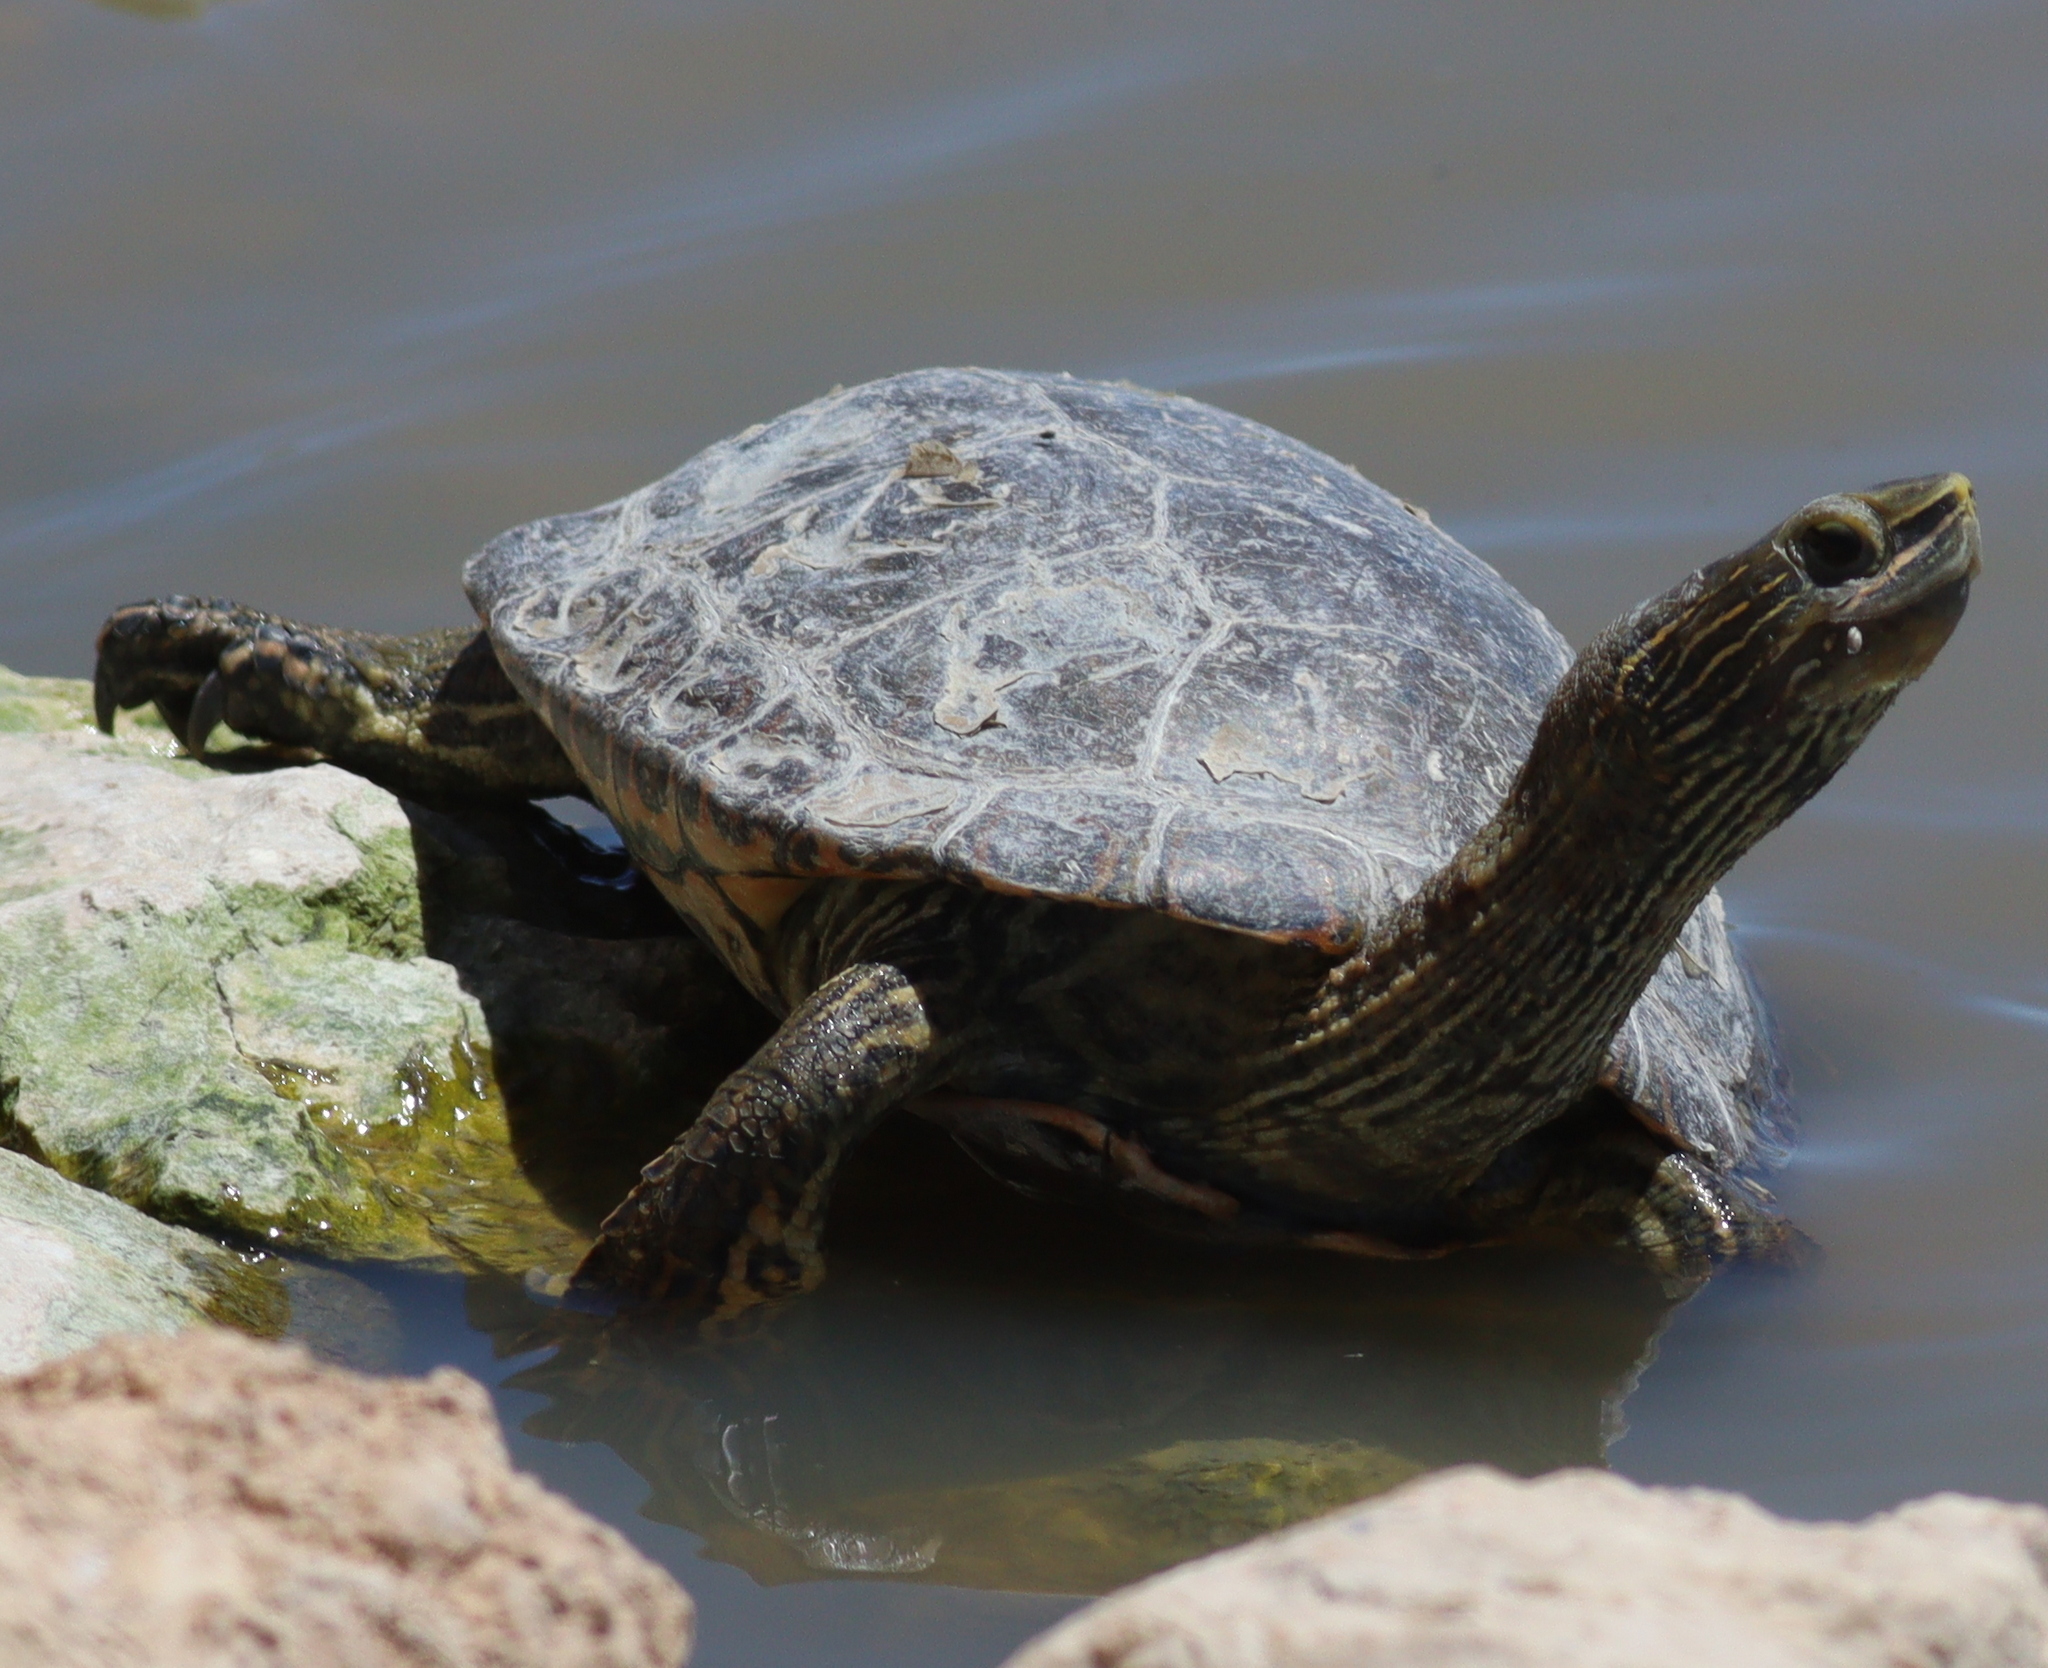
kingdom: Animalia
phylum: Chordata
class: Testudines
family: Geoemydidae
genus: Mauremys
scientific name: Mauremys caspica
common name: Caspian turtle
